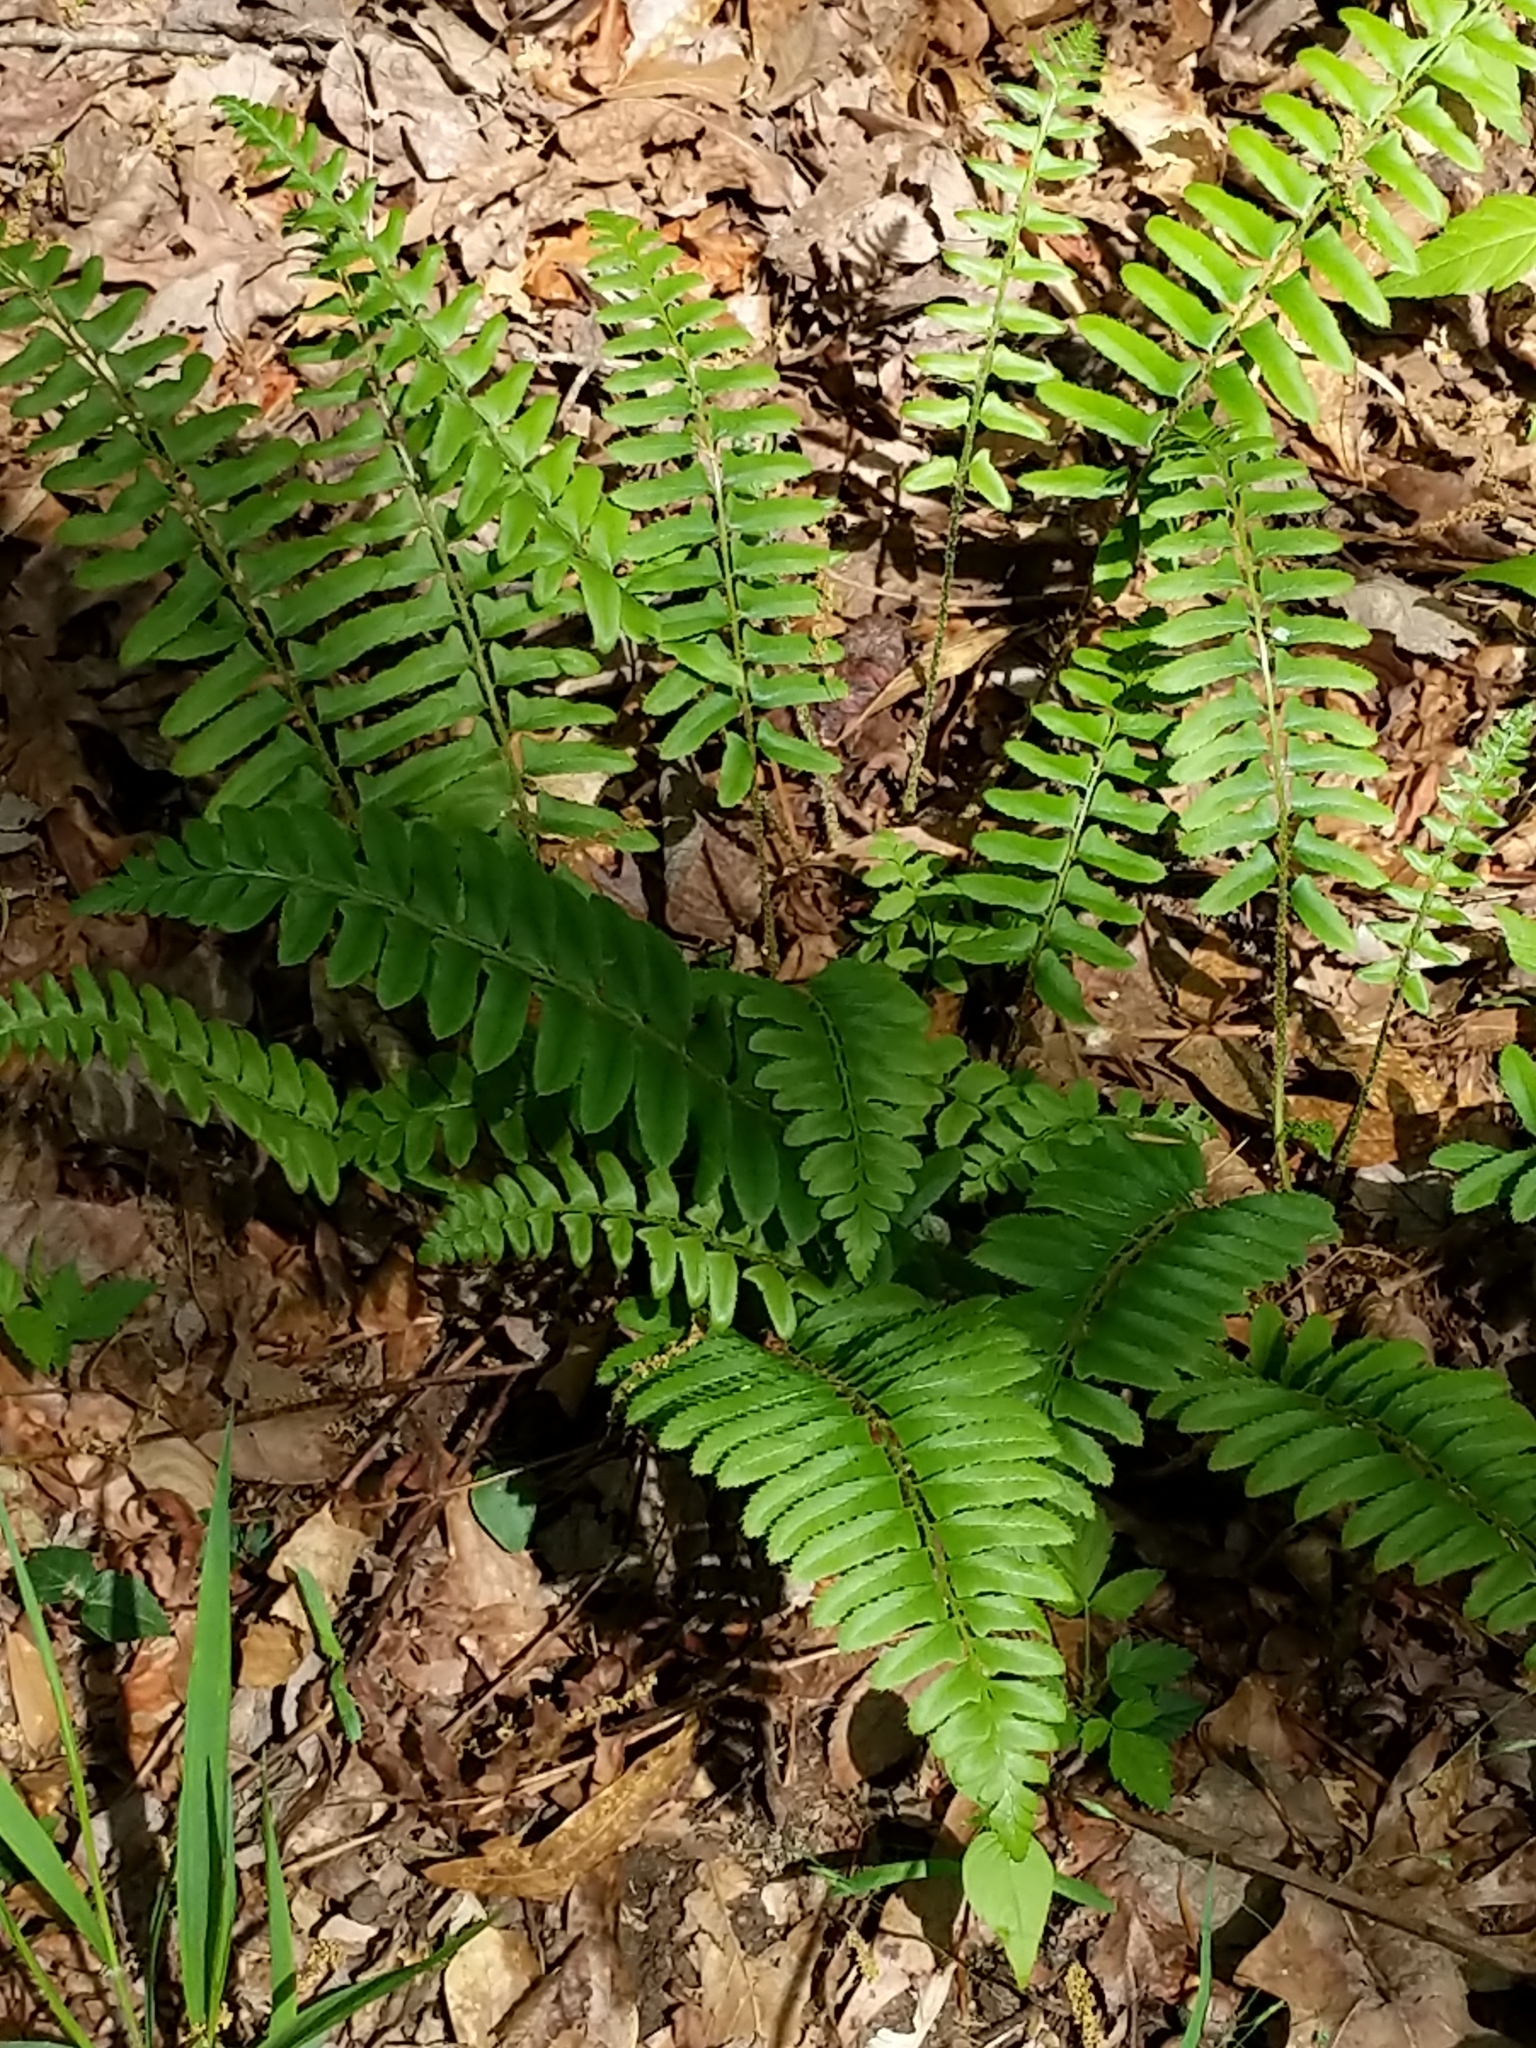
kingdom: Plantae
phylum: Tracheophyta
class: Polypodiopsida
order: Polypodiales
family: Dryopteridaceae
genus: Polystichum
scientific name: Polystichum acrostichoides
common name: Christmas fern
